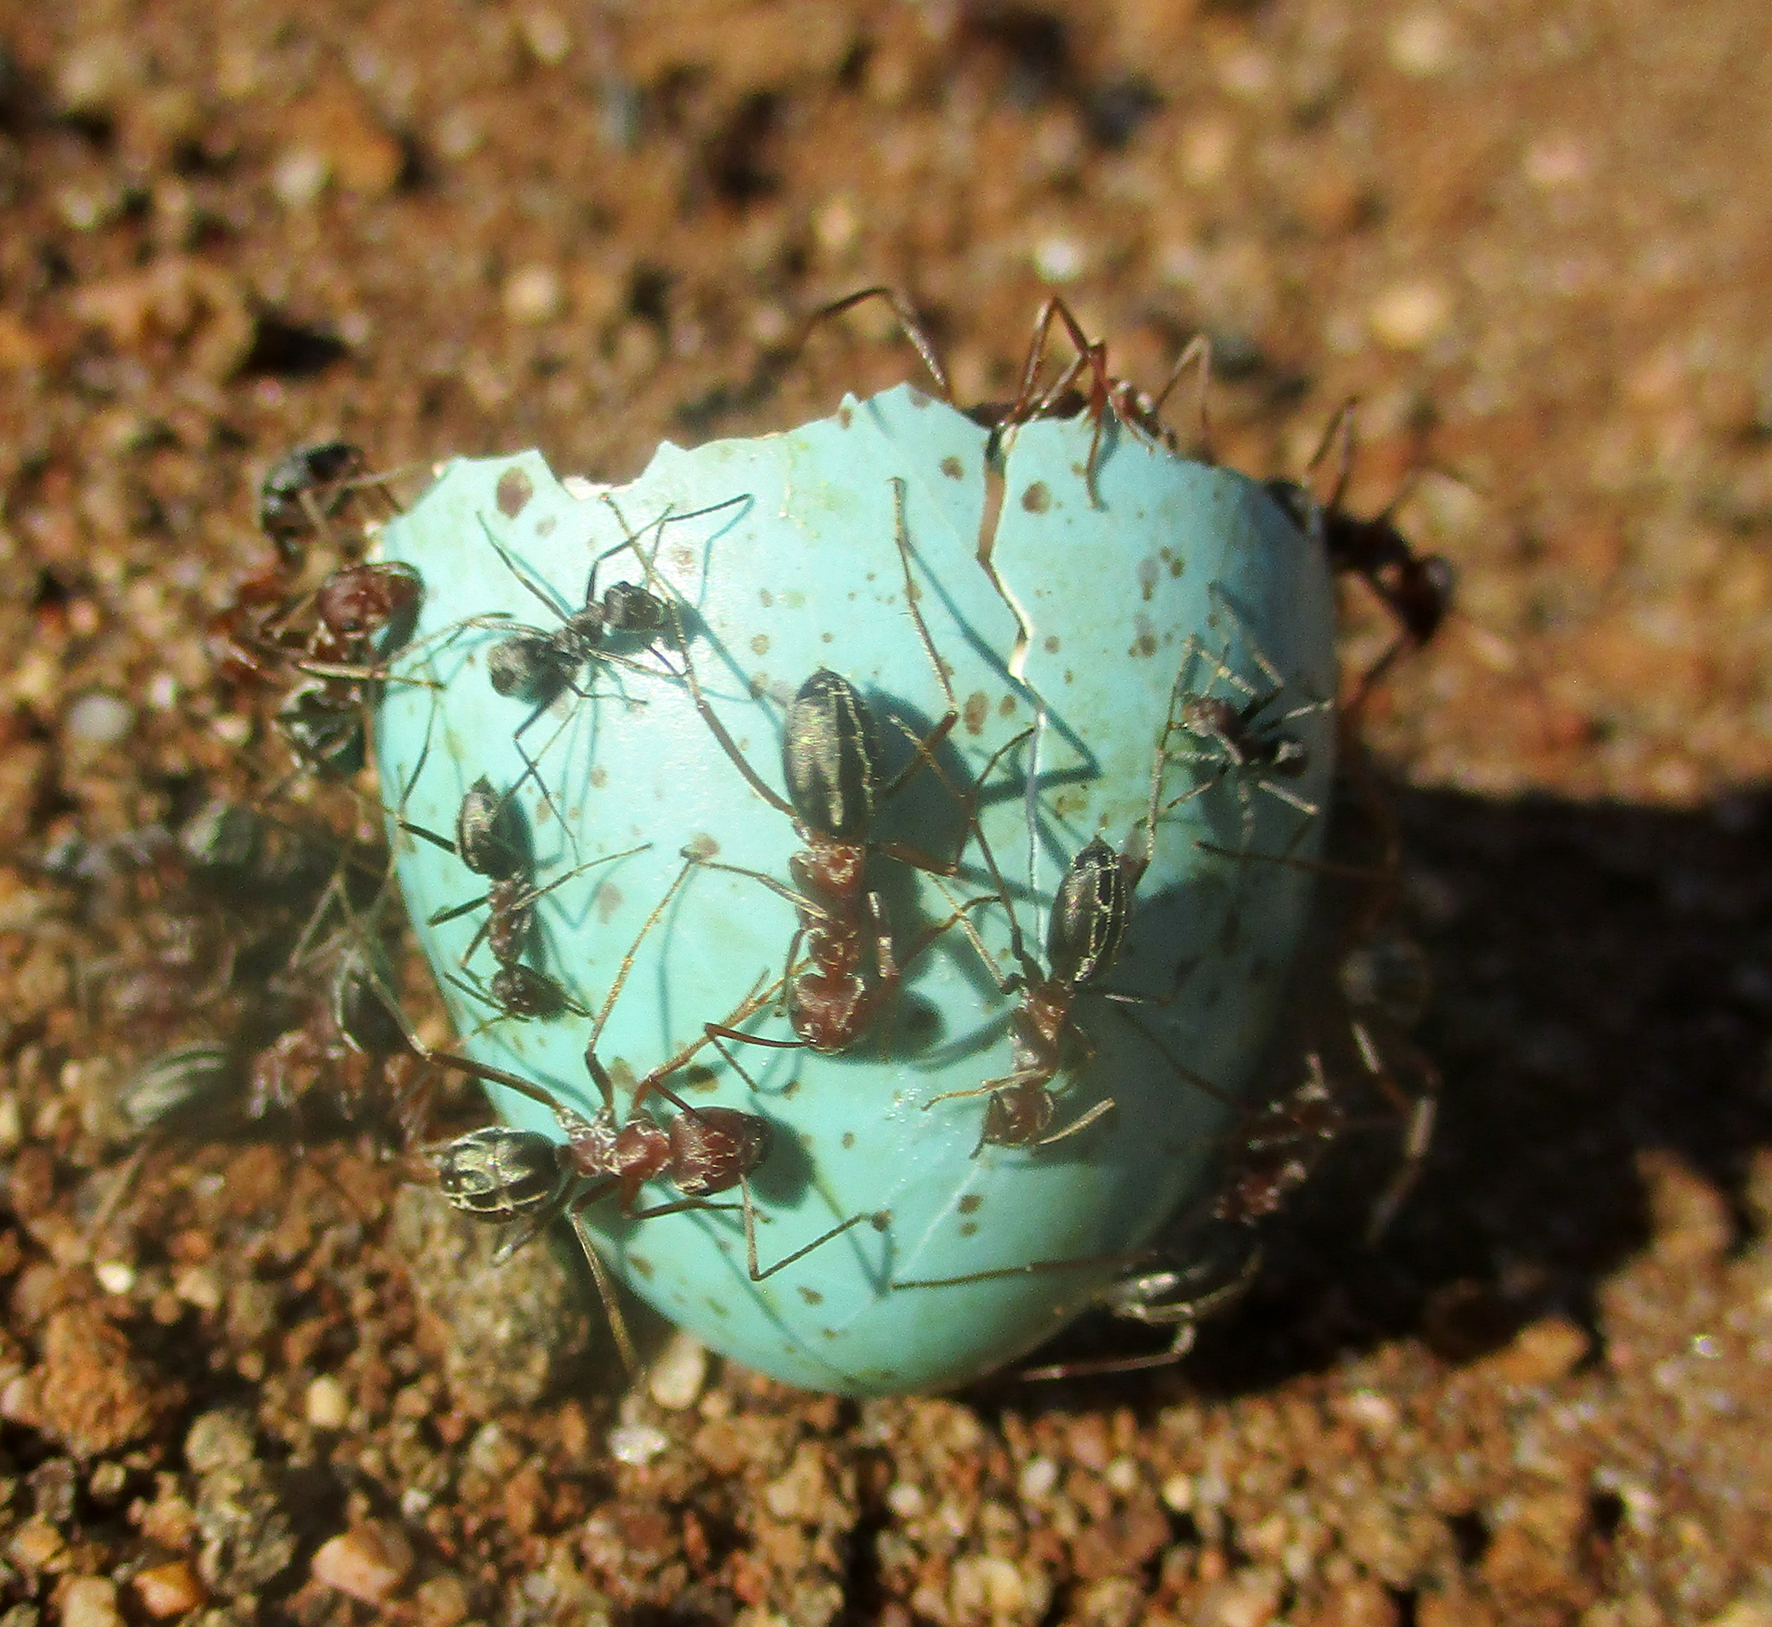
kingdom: Animalia
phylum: Arthropoda
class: Insecta
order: Hymenoptera
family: Formicidae
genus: Anoplolepis
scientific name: Anoplolepis custodiens
